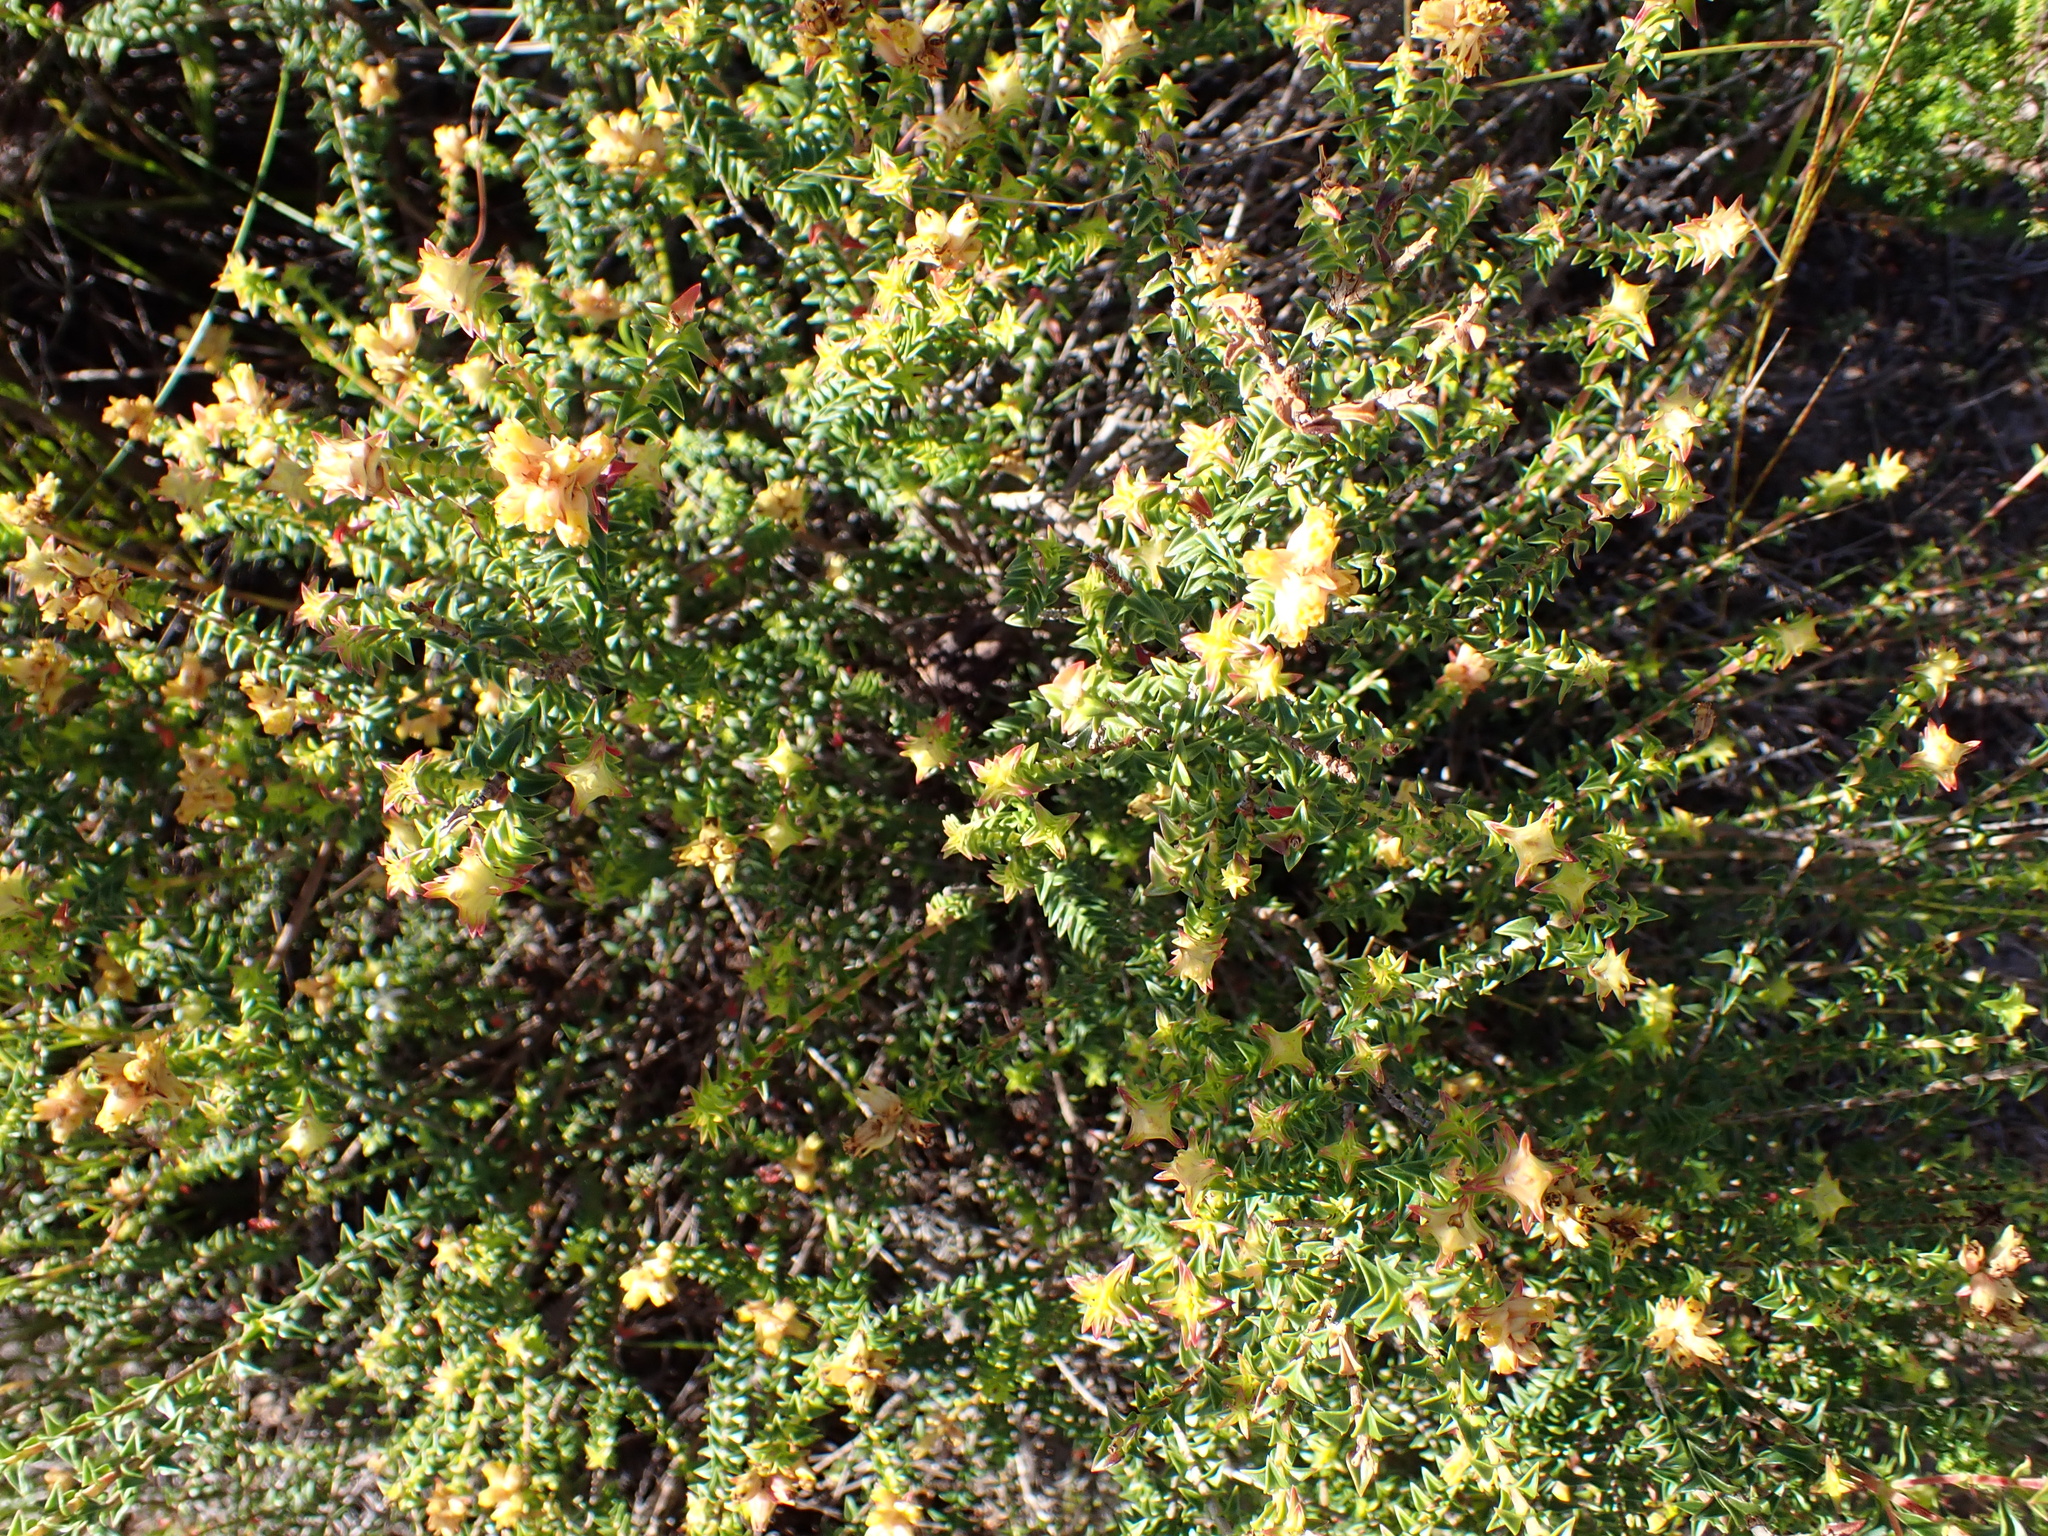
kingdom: Plantae
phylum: Tracheophyta
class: Magnoliopsida
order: Myrtales
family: Penaeaceae
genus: Penaea
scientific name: Penaea mucronata
